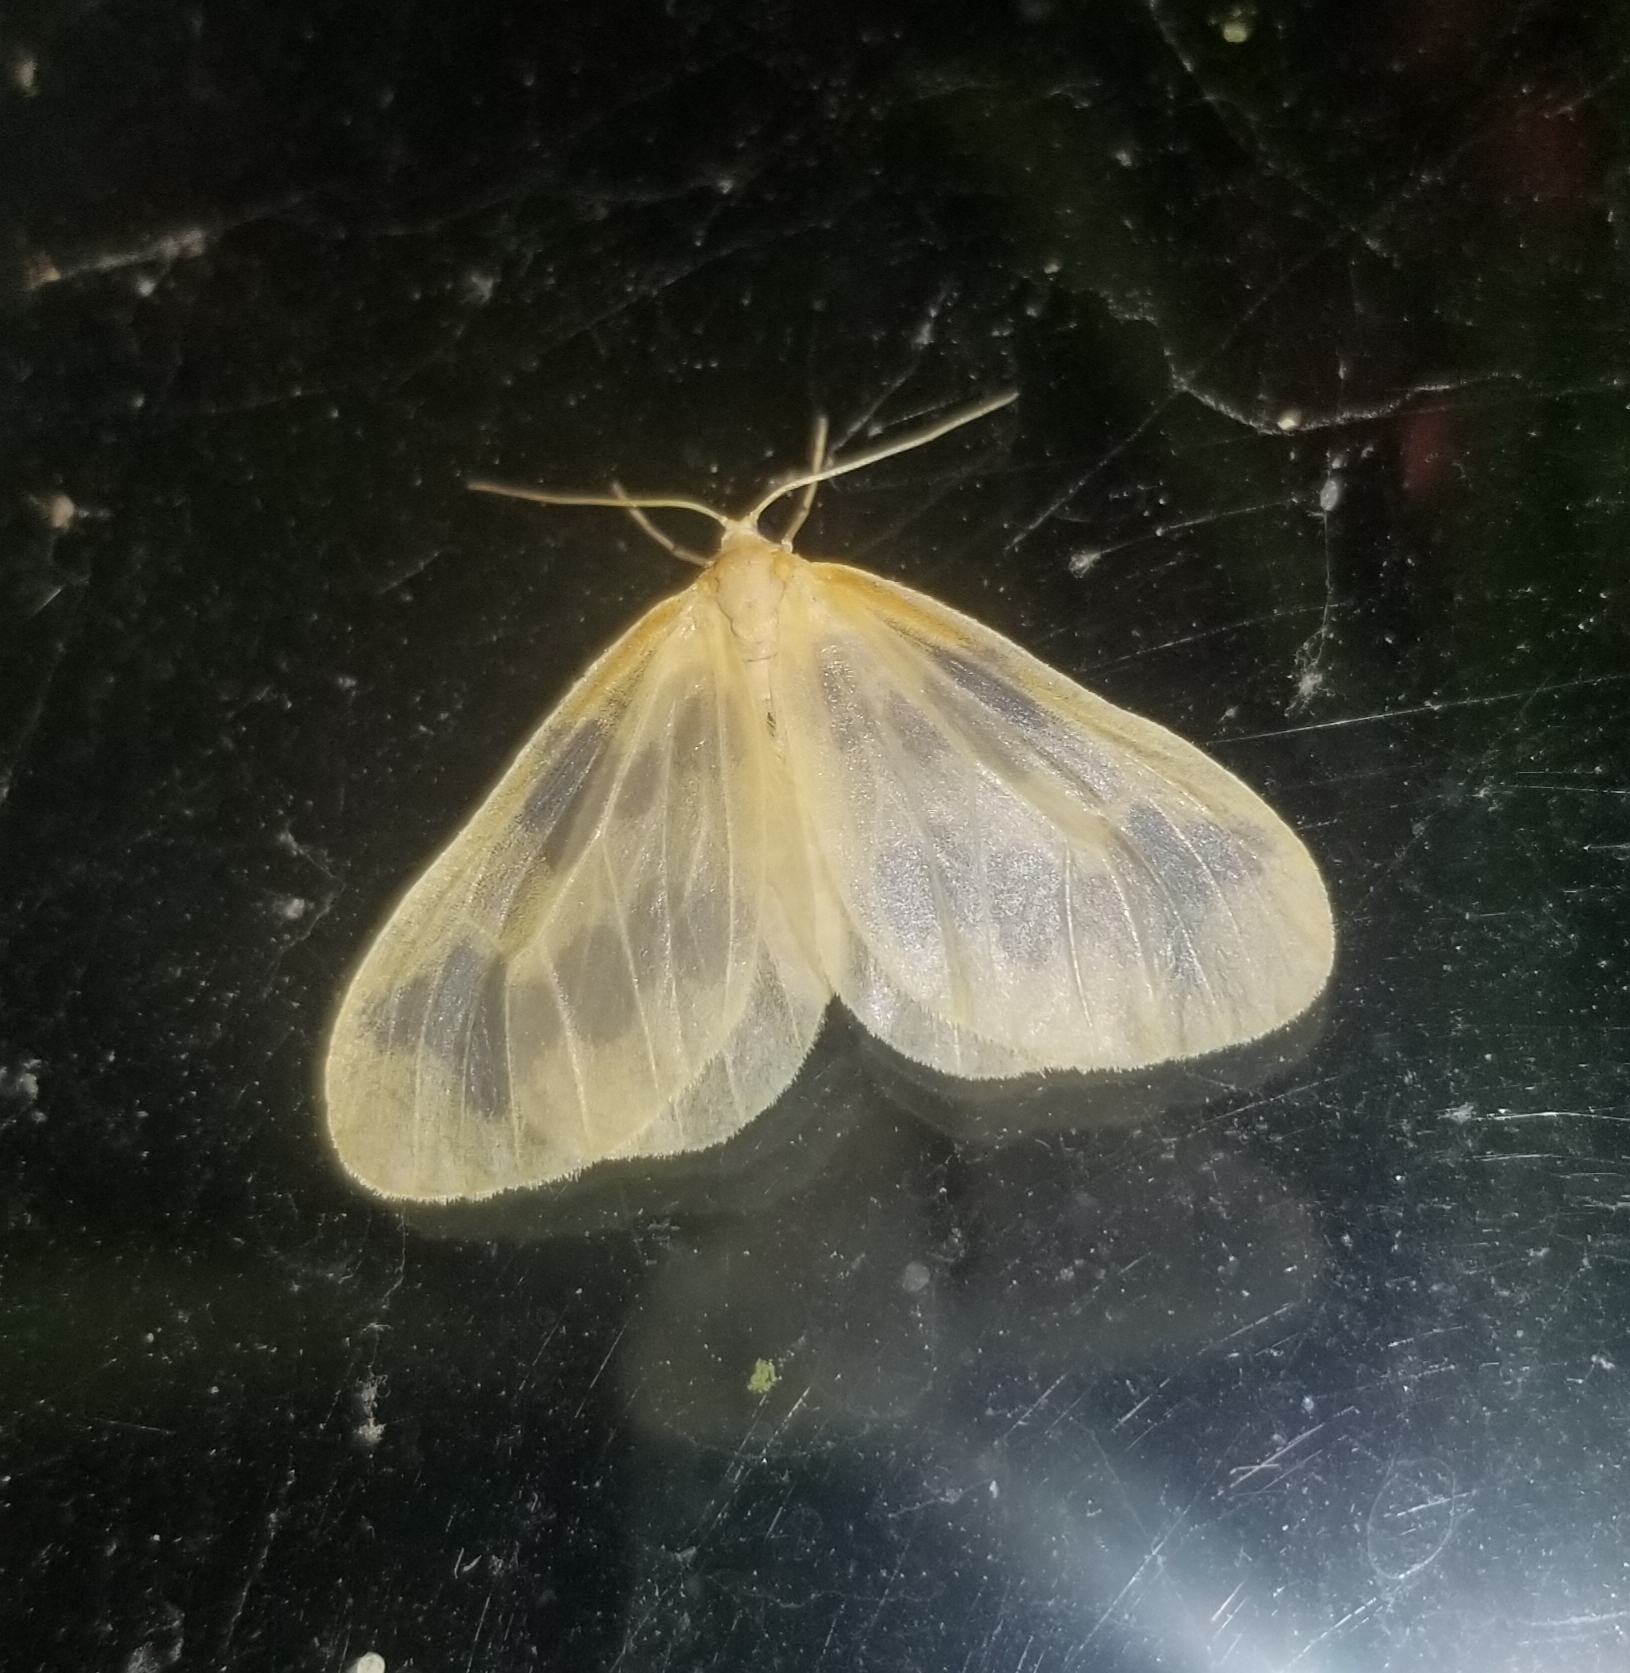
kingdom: Animalia
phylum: Arthropoda
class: Insecta
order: Lepidoptera
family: Geometridae
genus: Eubaphe
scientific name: Eubaphe mendica
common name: Beggar
